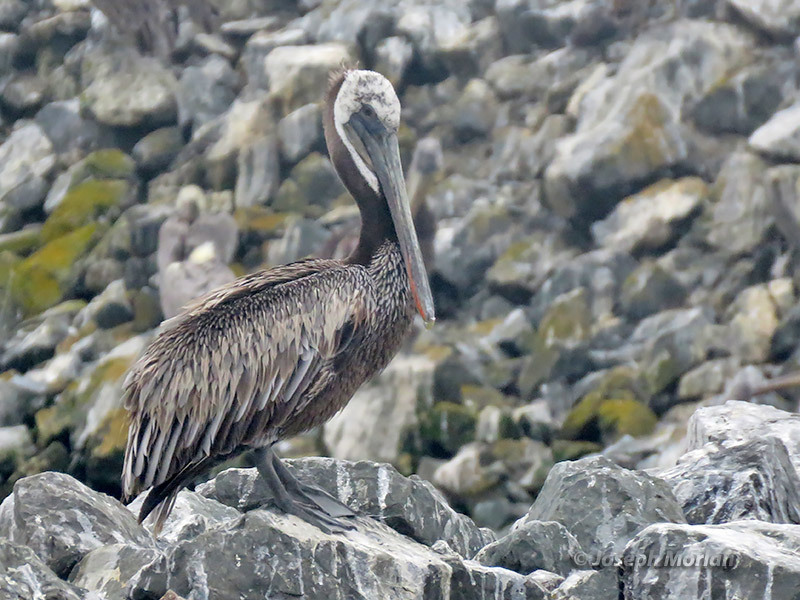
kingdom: Animalia
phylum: Chordata
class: Aves
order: Pelecaniformes
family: Pelecanidae
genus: Pelecanus
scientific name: Pelecanus occidentalis
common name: Brown pelican
